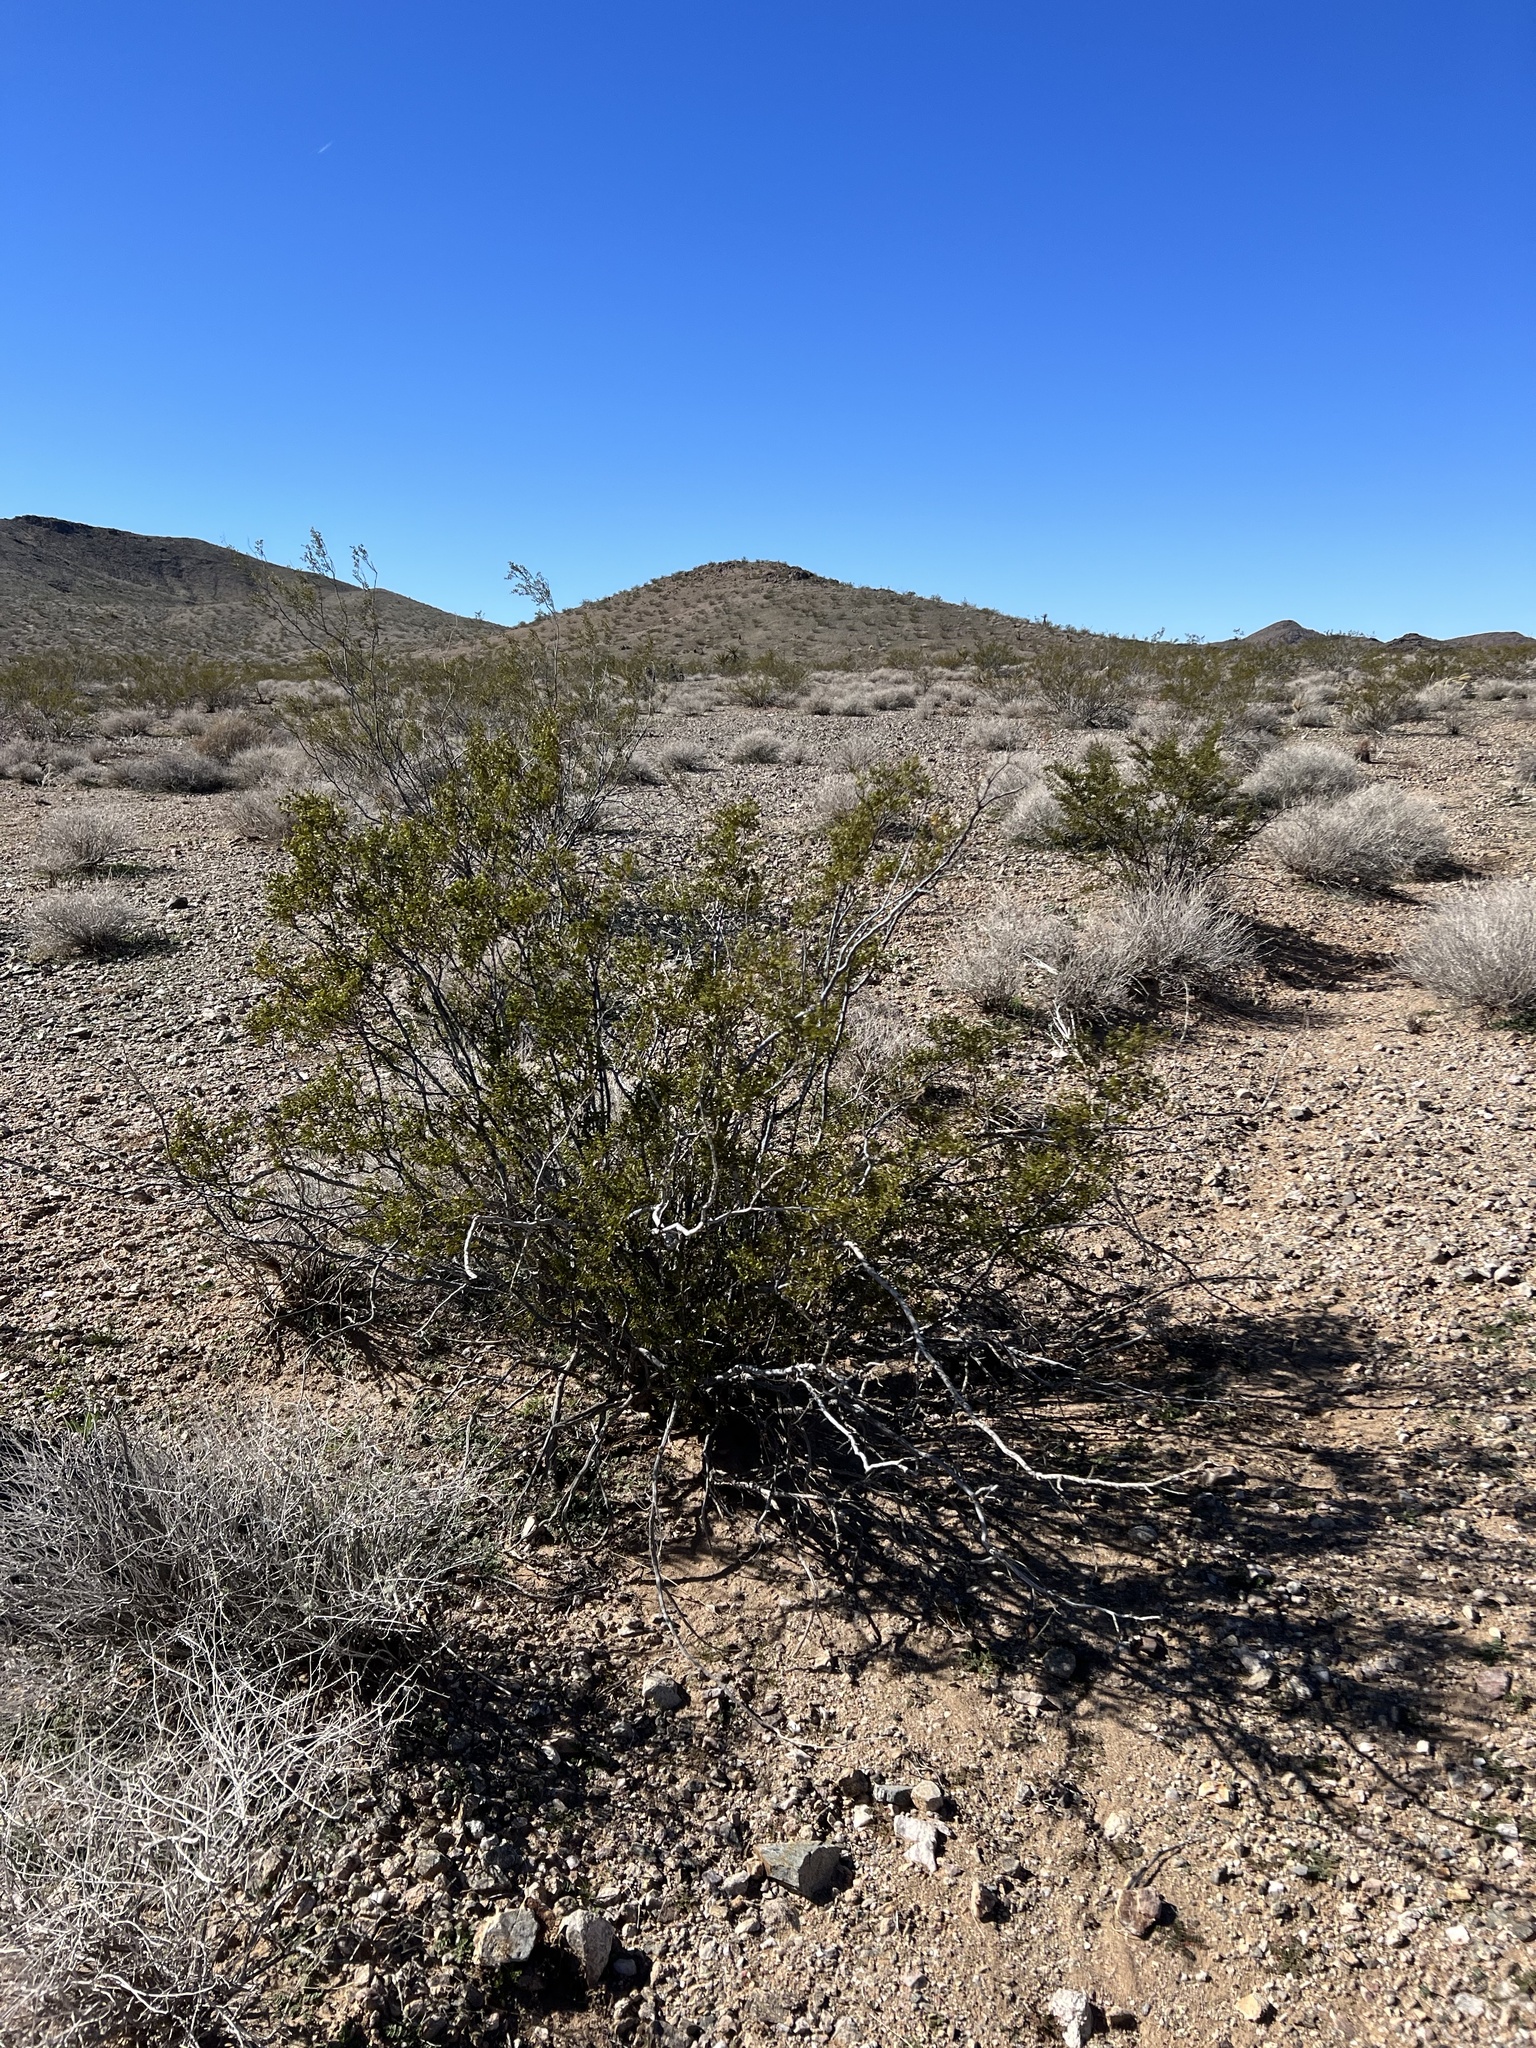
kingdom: Plantae
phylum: Tracheophyta
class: Magnoliopsida
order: Zygophyllales
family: Zygophyllaceae
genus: Larrea
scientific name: Larrea tridentata
